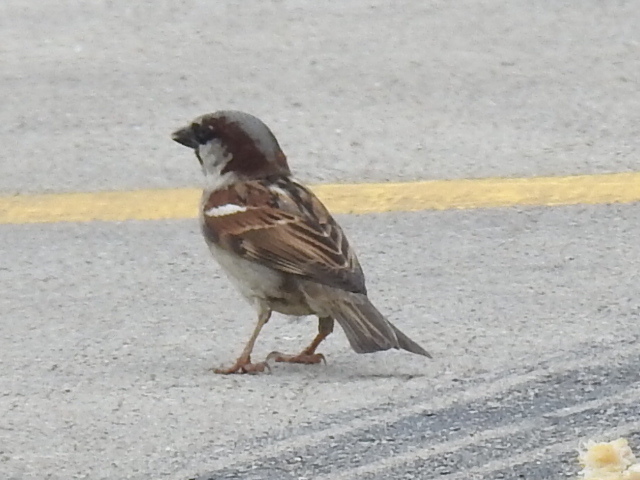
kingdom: Animalia
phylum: Chordata
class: Aves
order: Passeriformes
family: Passeridae
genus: Passer
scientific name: Passer domesticus
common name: House sparrow
